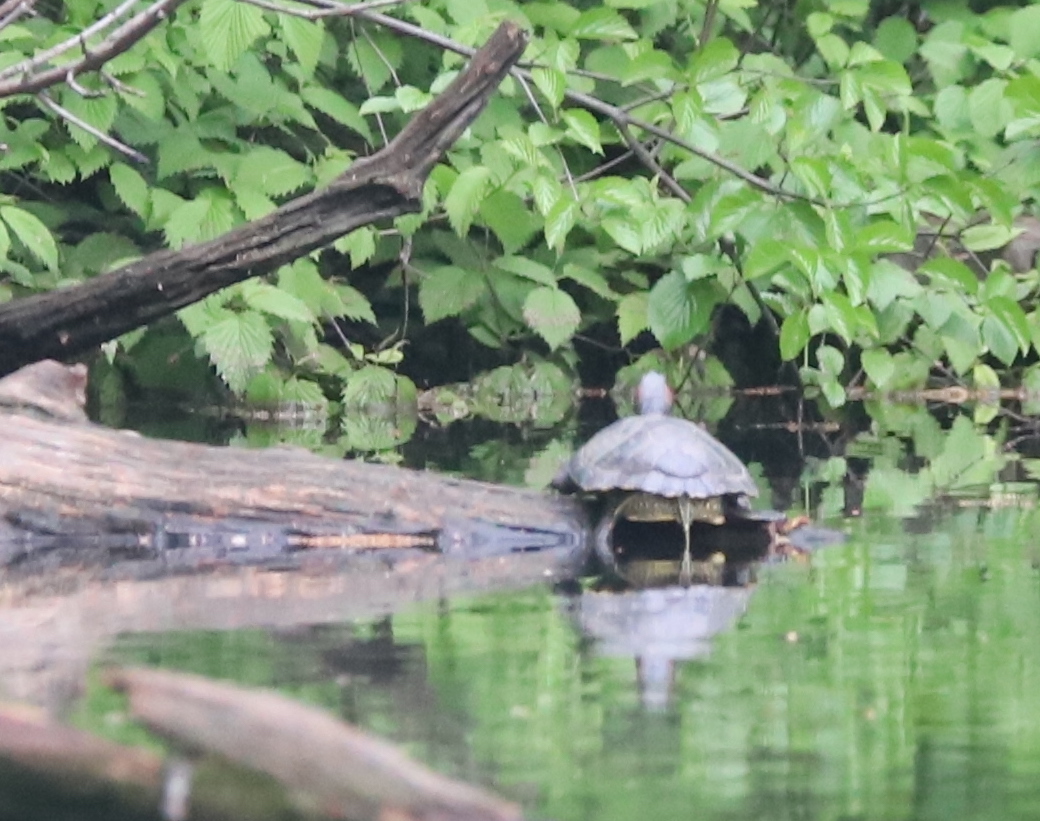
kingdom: Animalia
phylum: Chordata
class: Testudines
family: Emydidae
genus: Trachemys
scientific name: Trachemys scripta
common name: Slider
